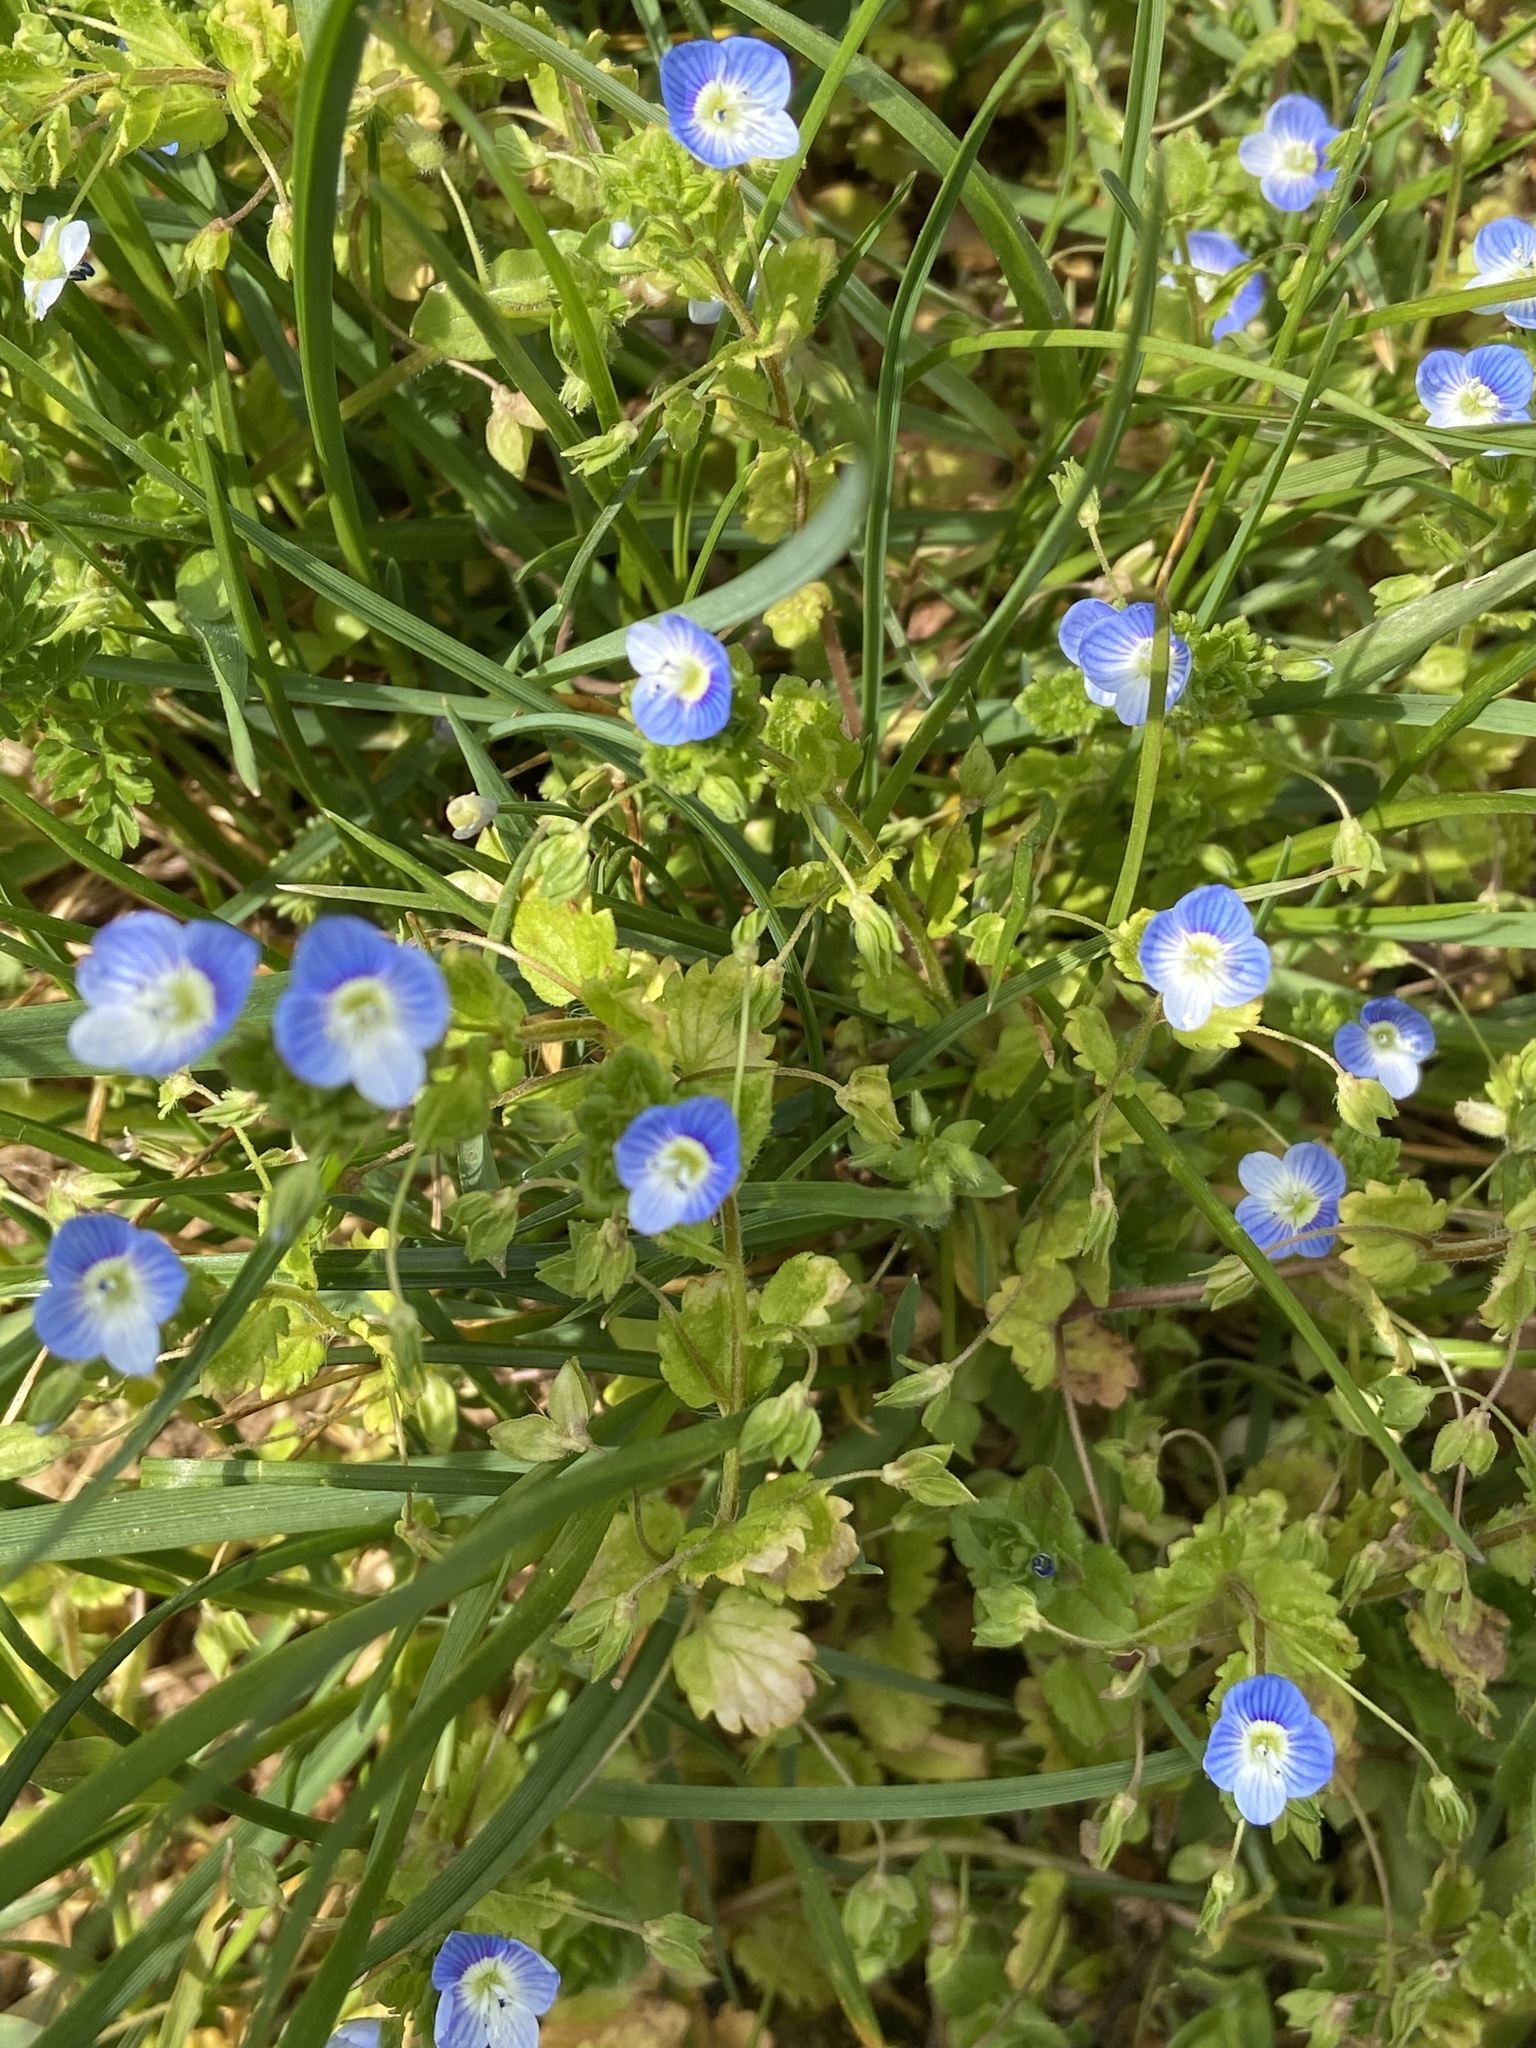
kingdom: Plantae
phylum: Tracheophyta
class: Magnoliopsida
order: Lamiales
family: Plantaginaceae
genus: Veronica
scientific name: Veronica persica
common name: Common field-speedwell
